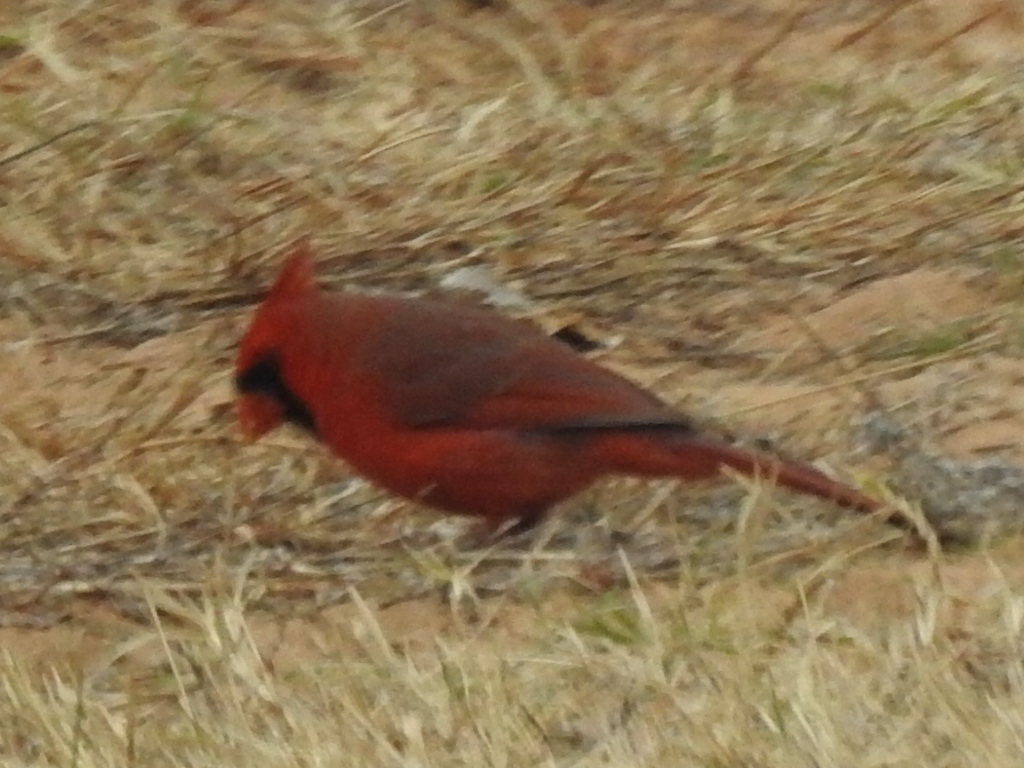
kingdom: Animalia
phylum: Chordata
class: Aves
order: Passeriformes
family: Cardinalidae
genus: Cardinalis
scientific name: Cardinalis cardinalis
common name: Northern cardinal
